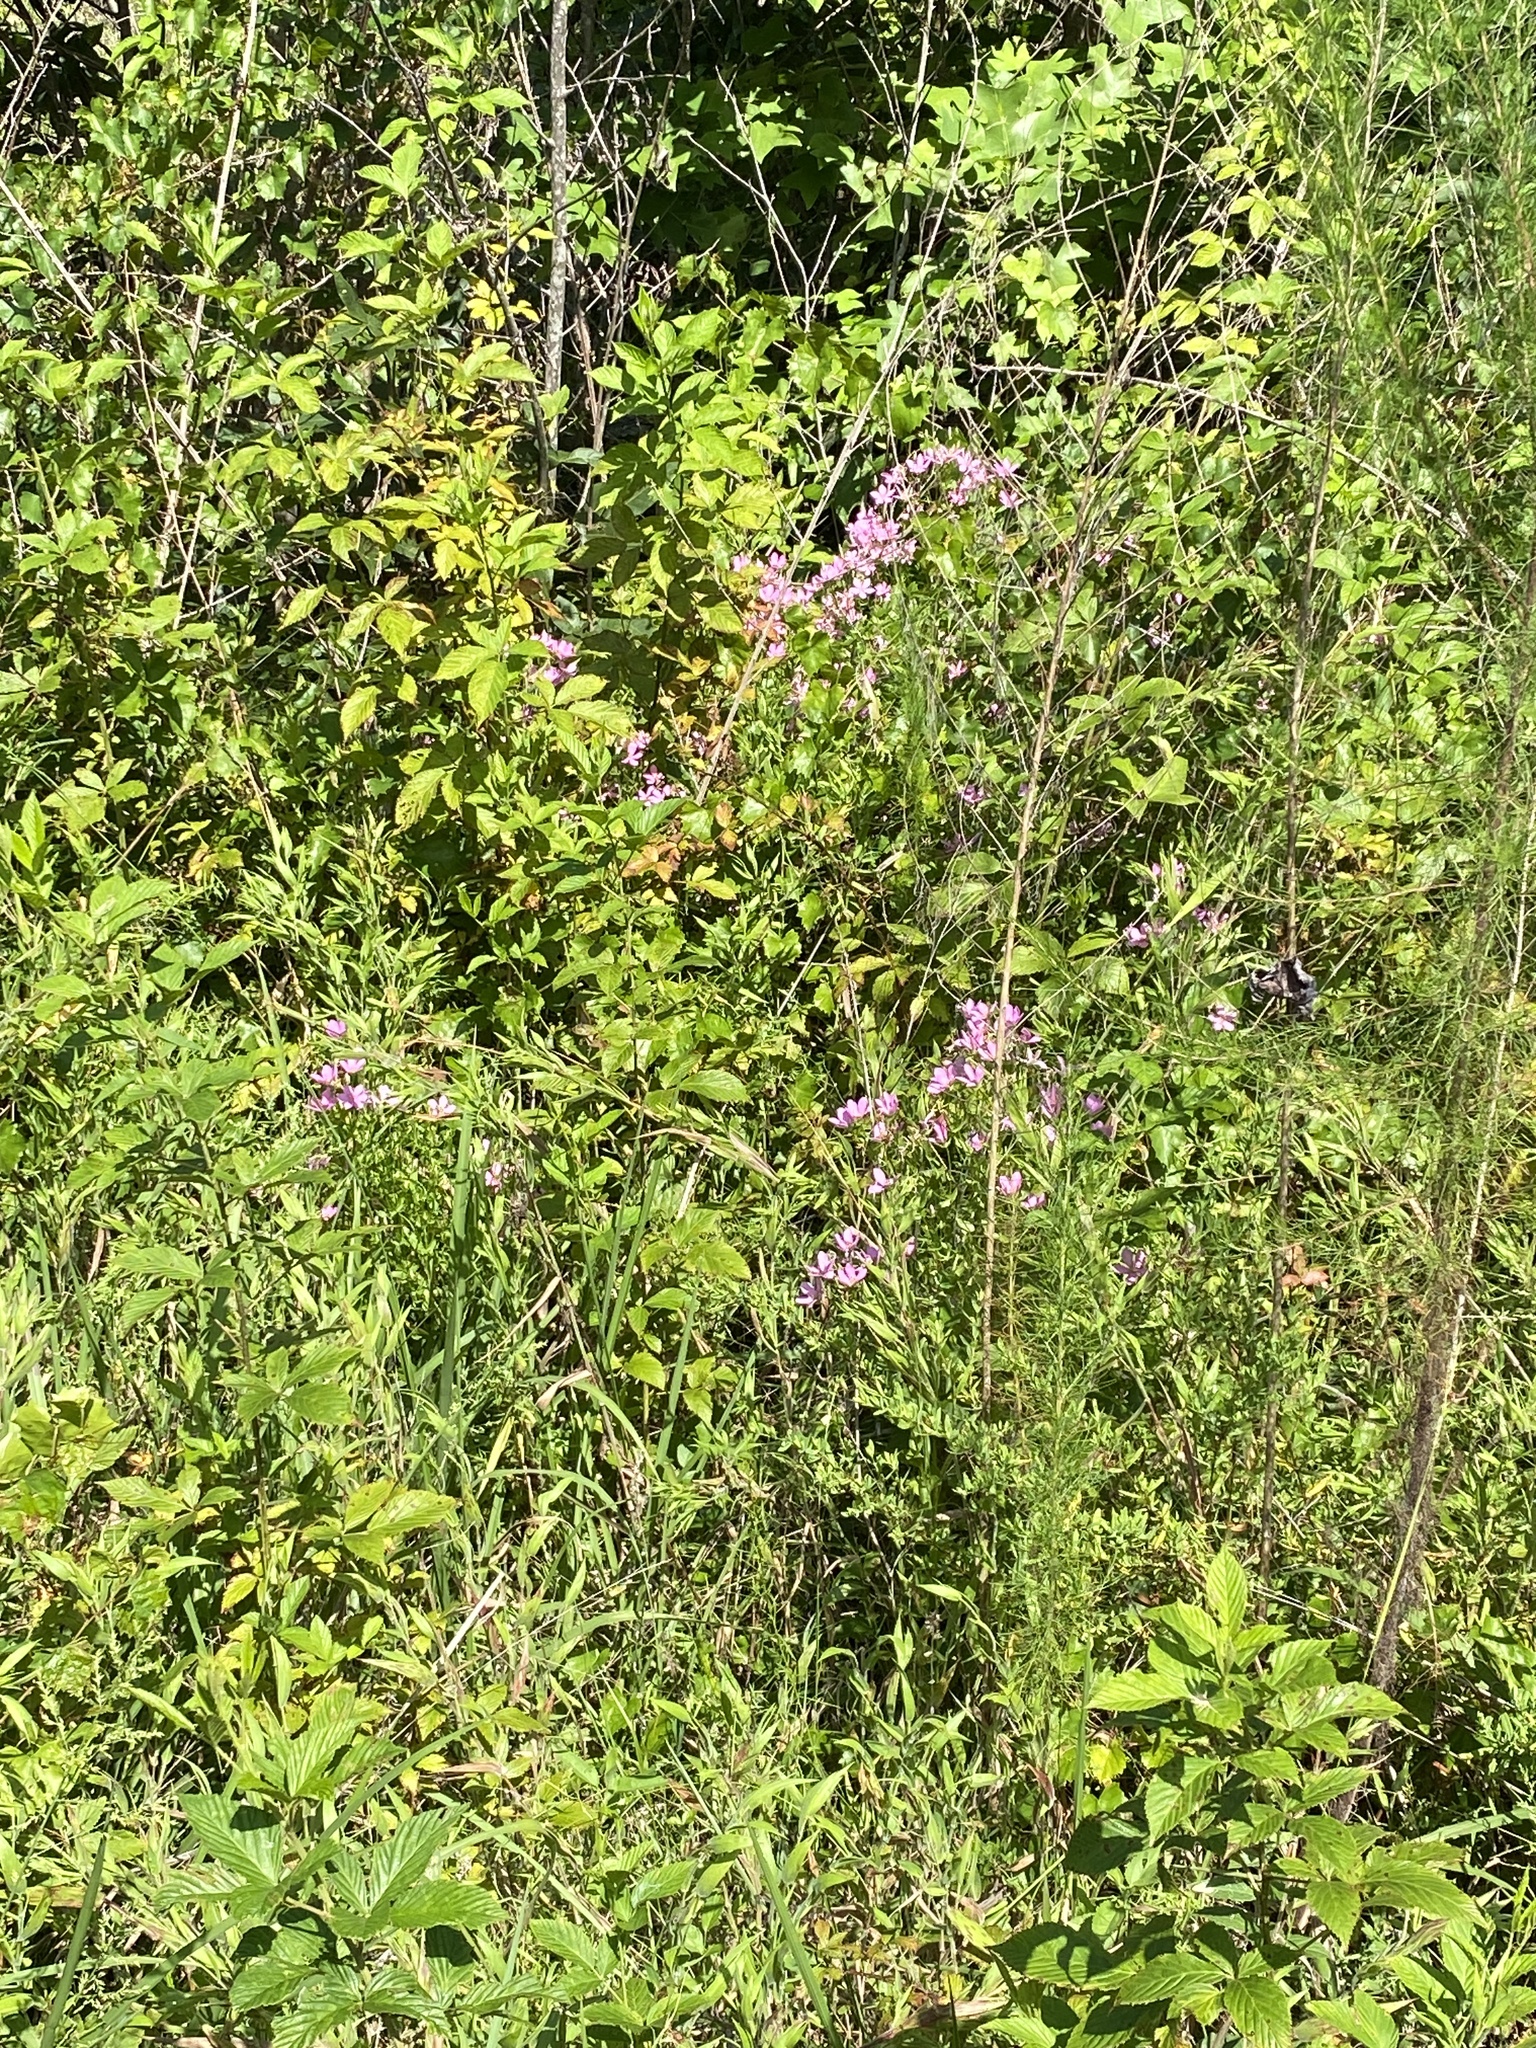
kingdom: Plantae
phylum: Tracheophyta
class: Magnoliopsida
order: Gentianales
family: Gentianaceae
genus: Sabatia
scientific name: Sabatia angularis
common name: Rose-pink
